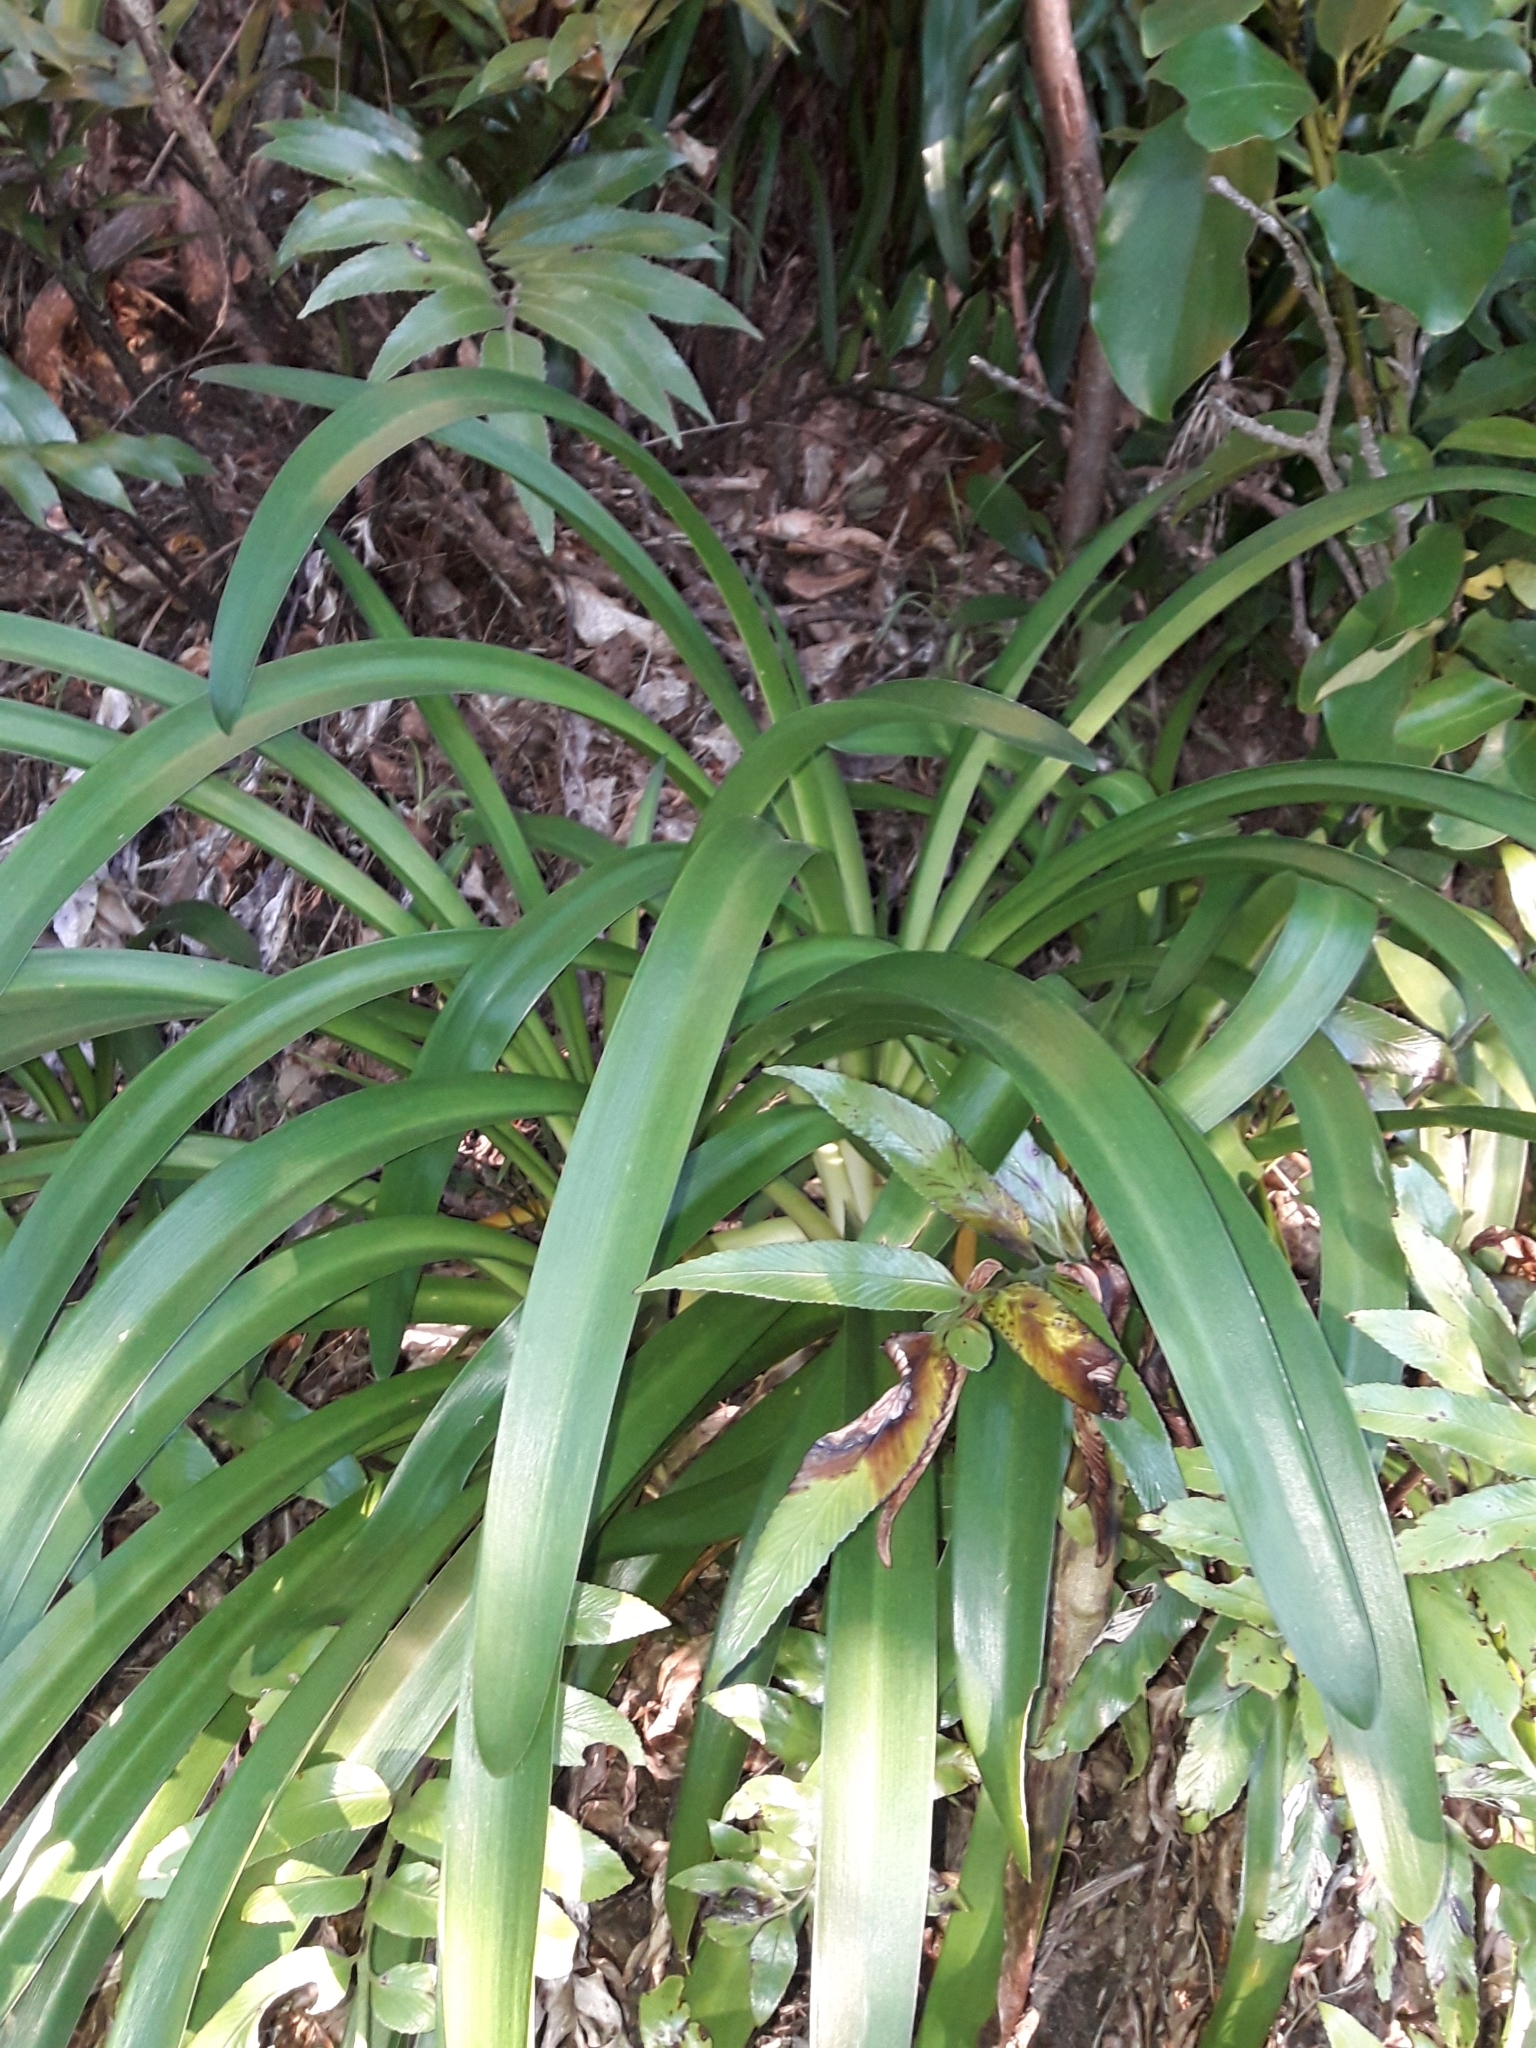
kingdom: Plantae
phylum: Tracheophyta
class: Liliopsida
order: Asparagales
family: Amaryllidaceae
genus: Agapanthus
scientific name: Agapanthus praecox
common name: African-lily
